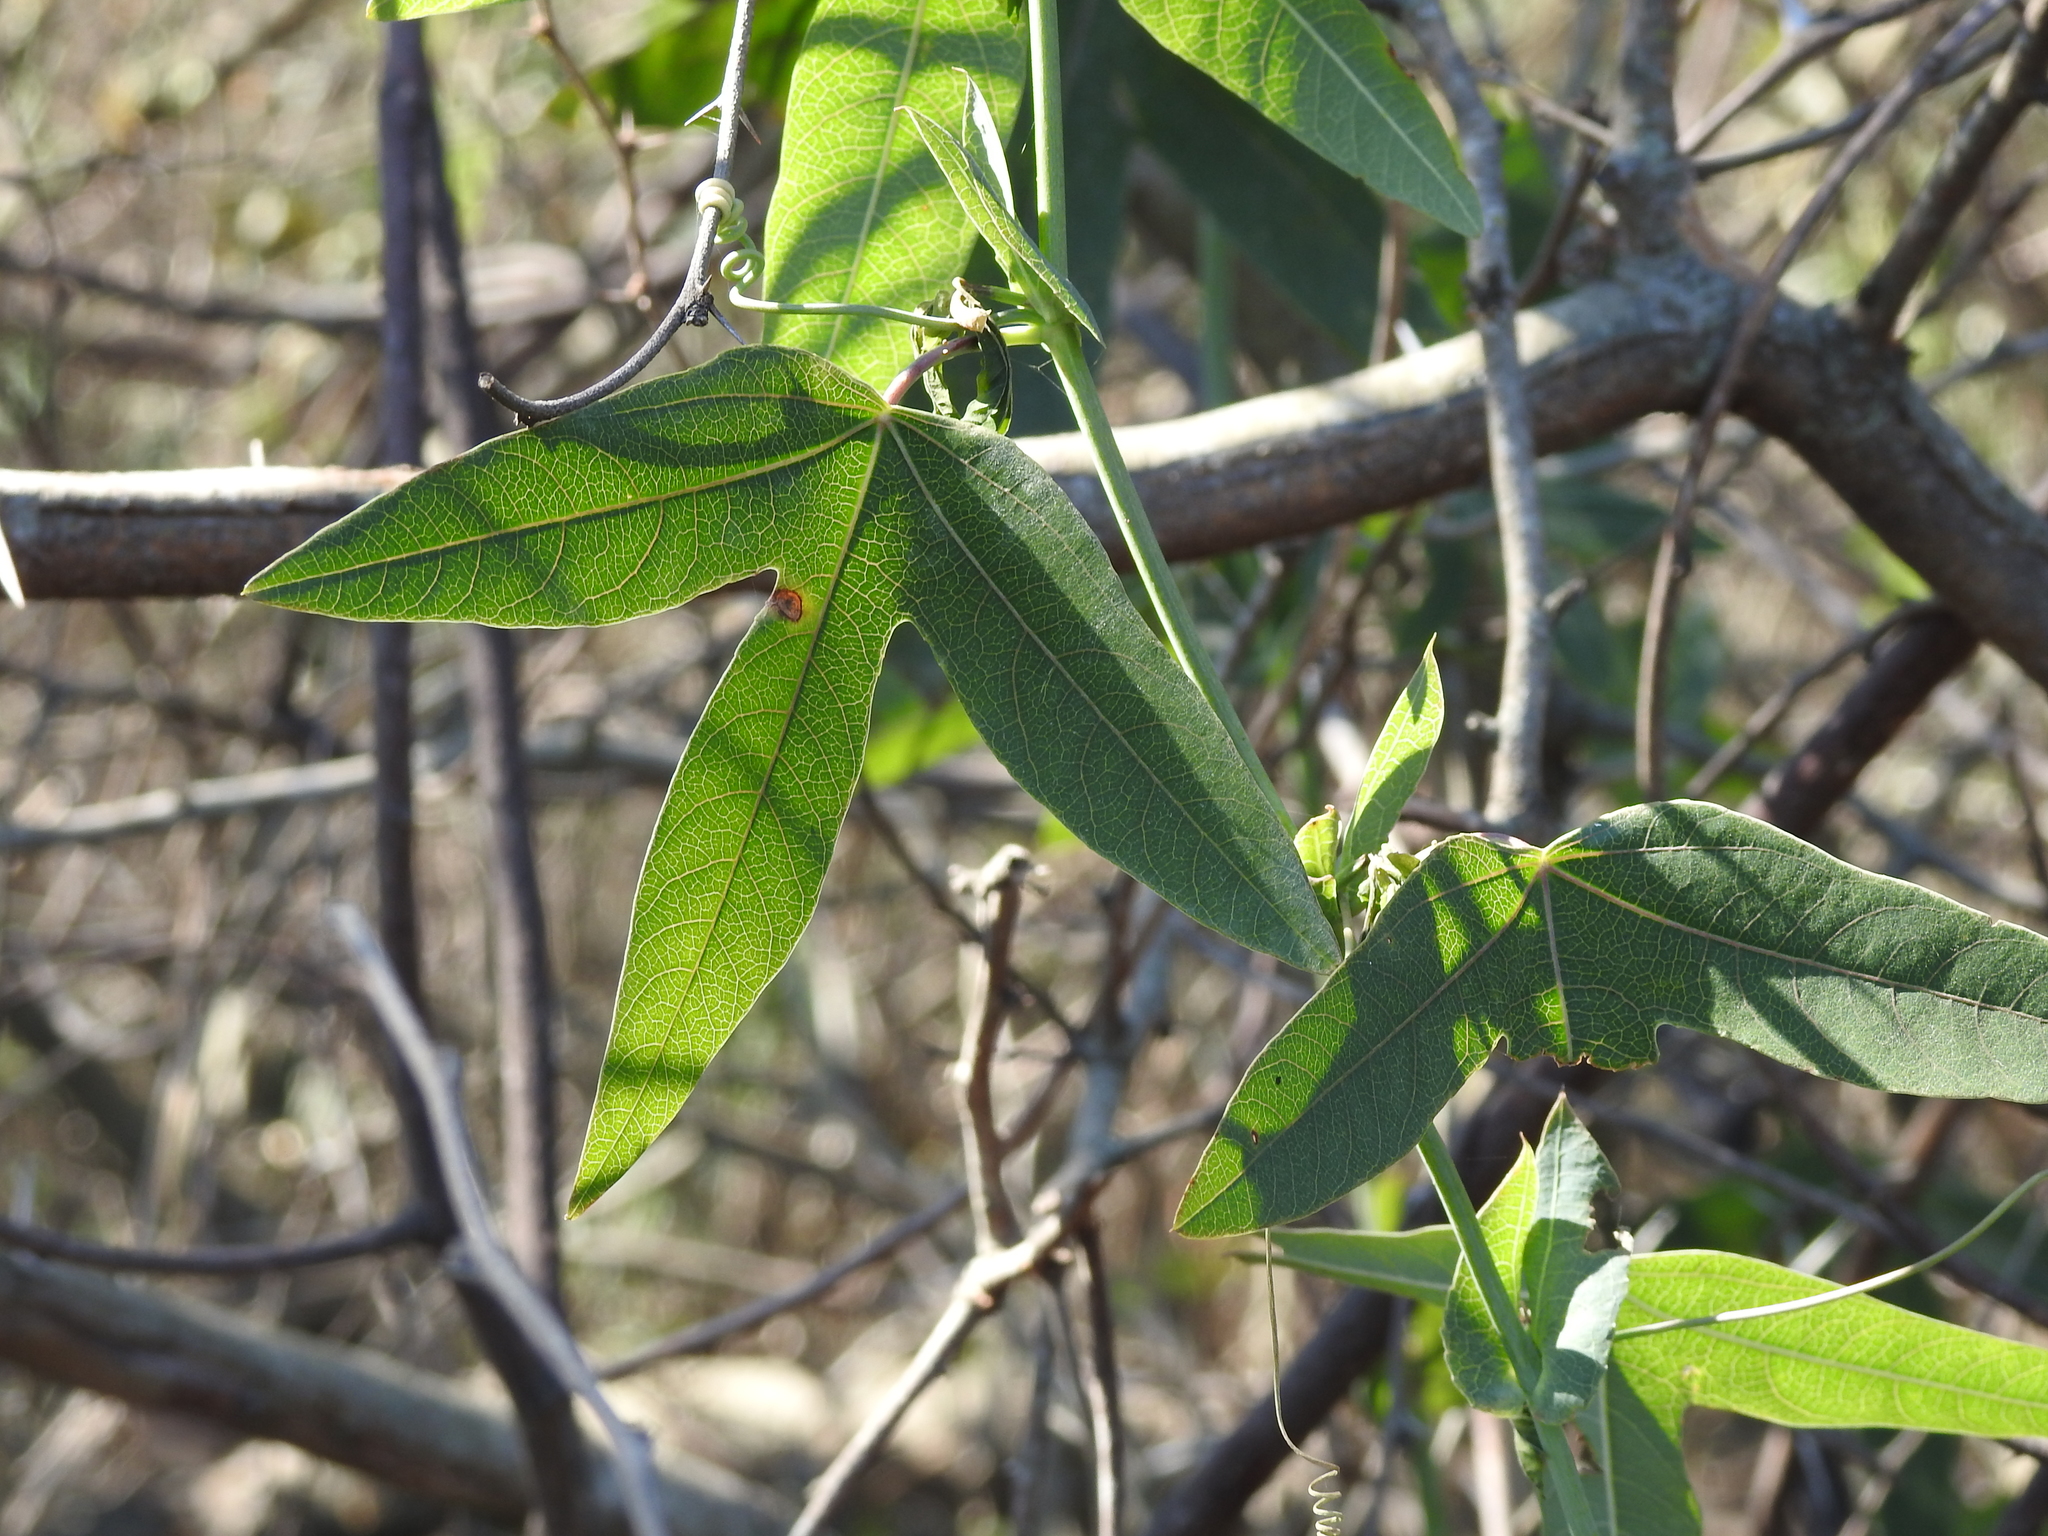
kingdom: Plantae
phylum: Tracheophyta
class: Magnoliopsida
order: Malpighiales
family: Passifloraceae
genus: Passiflora
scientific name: Passiflora giberti
